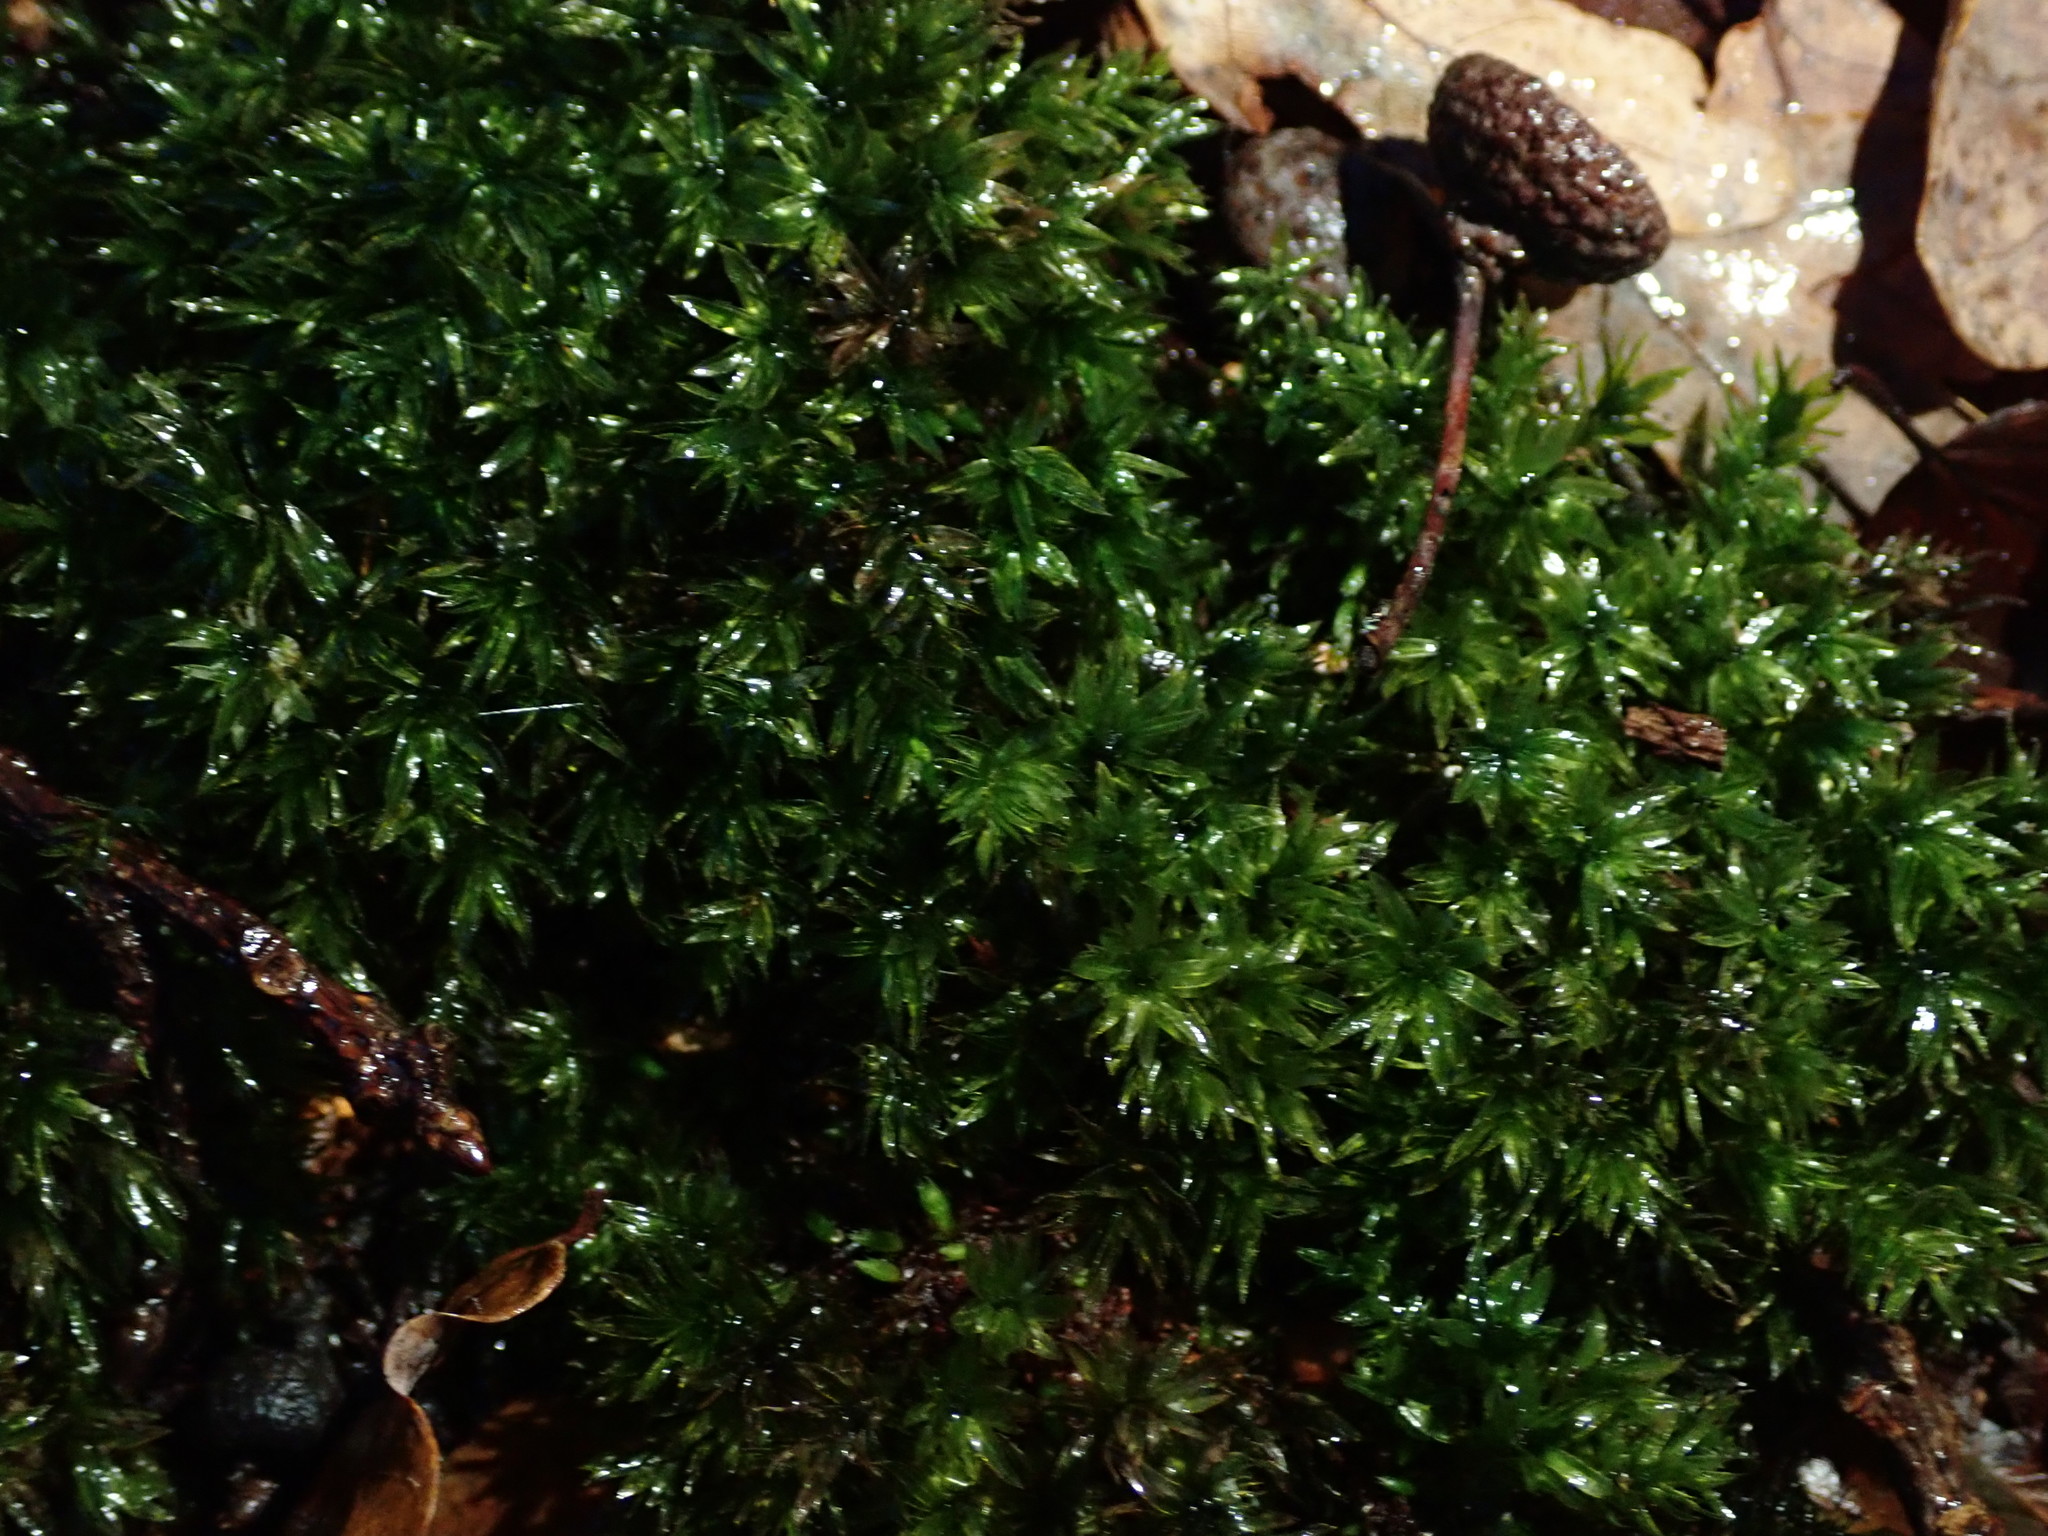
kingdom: Plantae
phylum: Bryophyta
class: Bryopsida
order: Bryales
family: Mniaceae
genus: Mnium
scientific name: Mnium hornum
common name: Swan's-neck leafy moss
